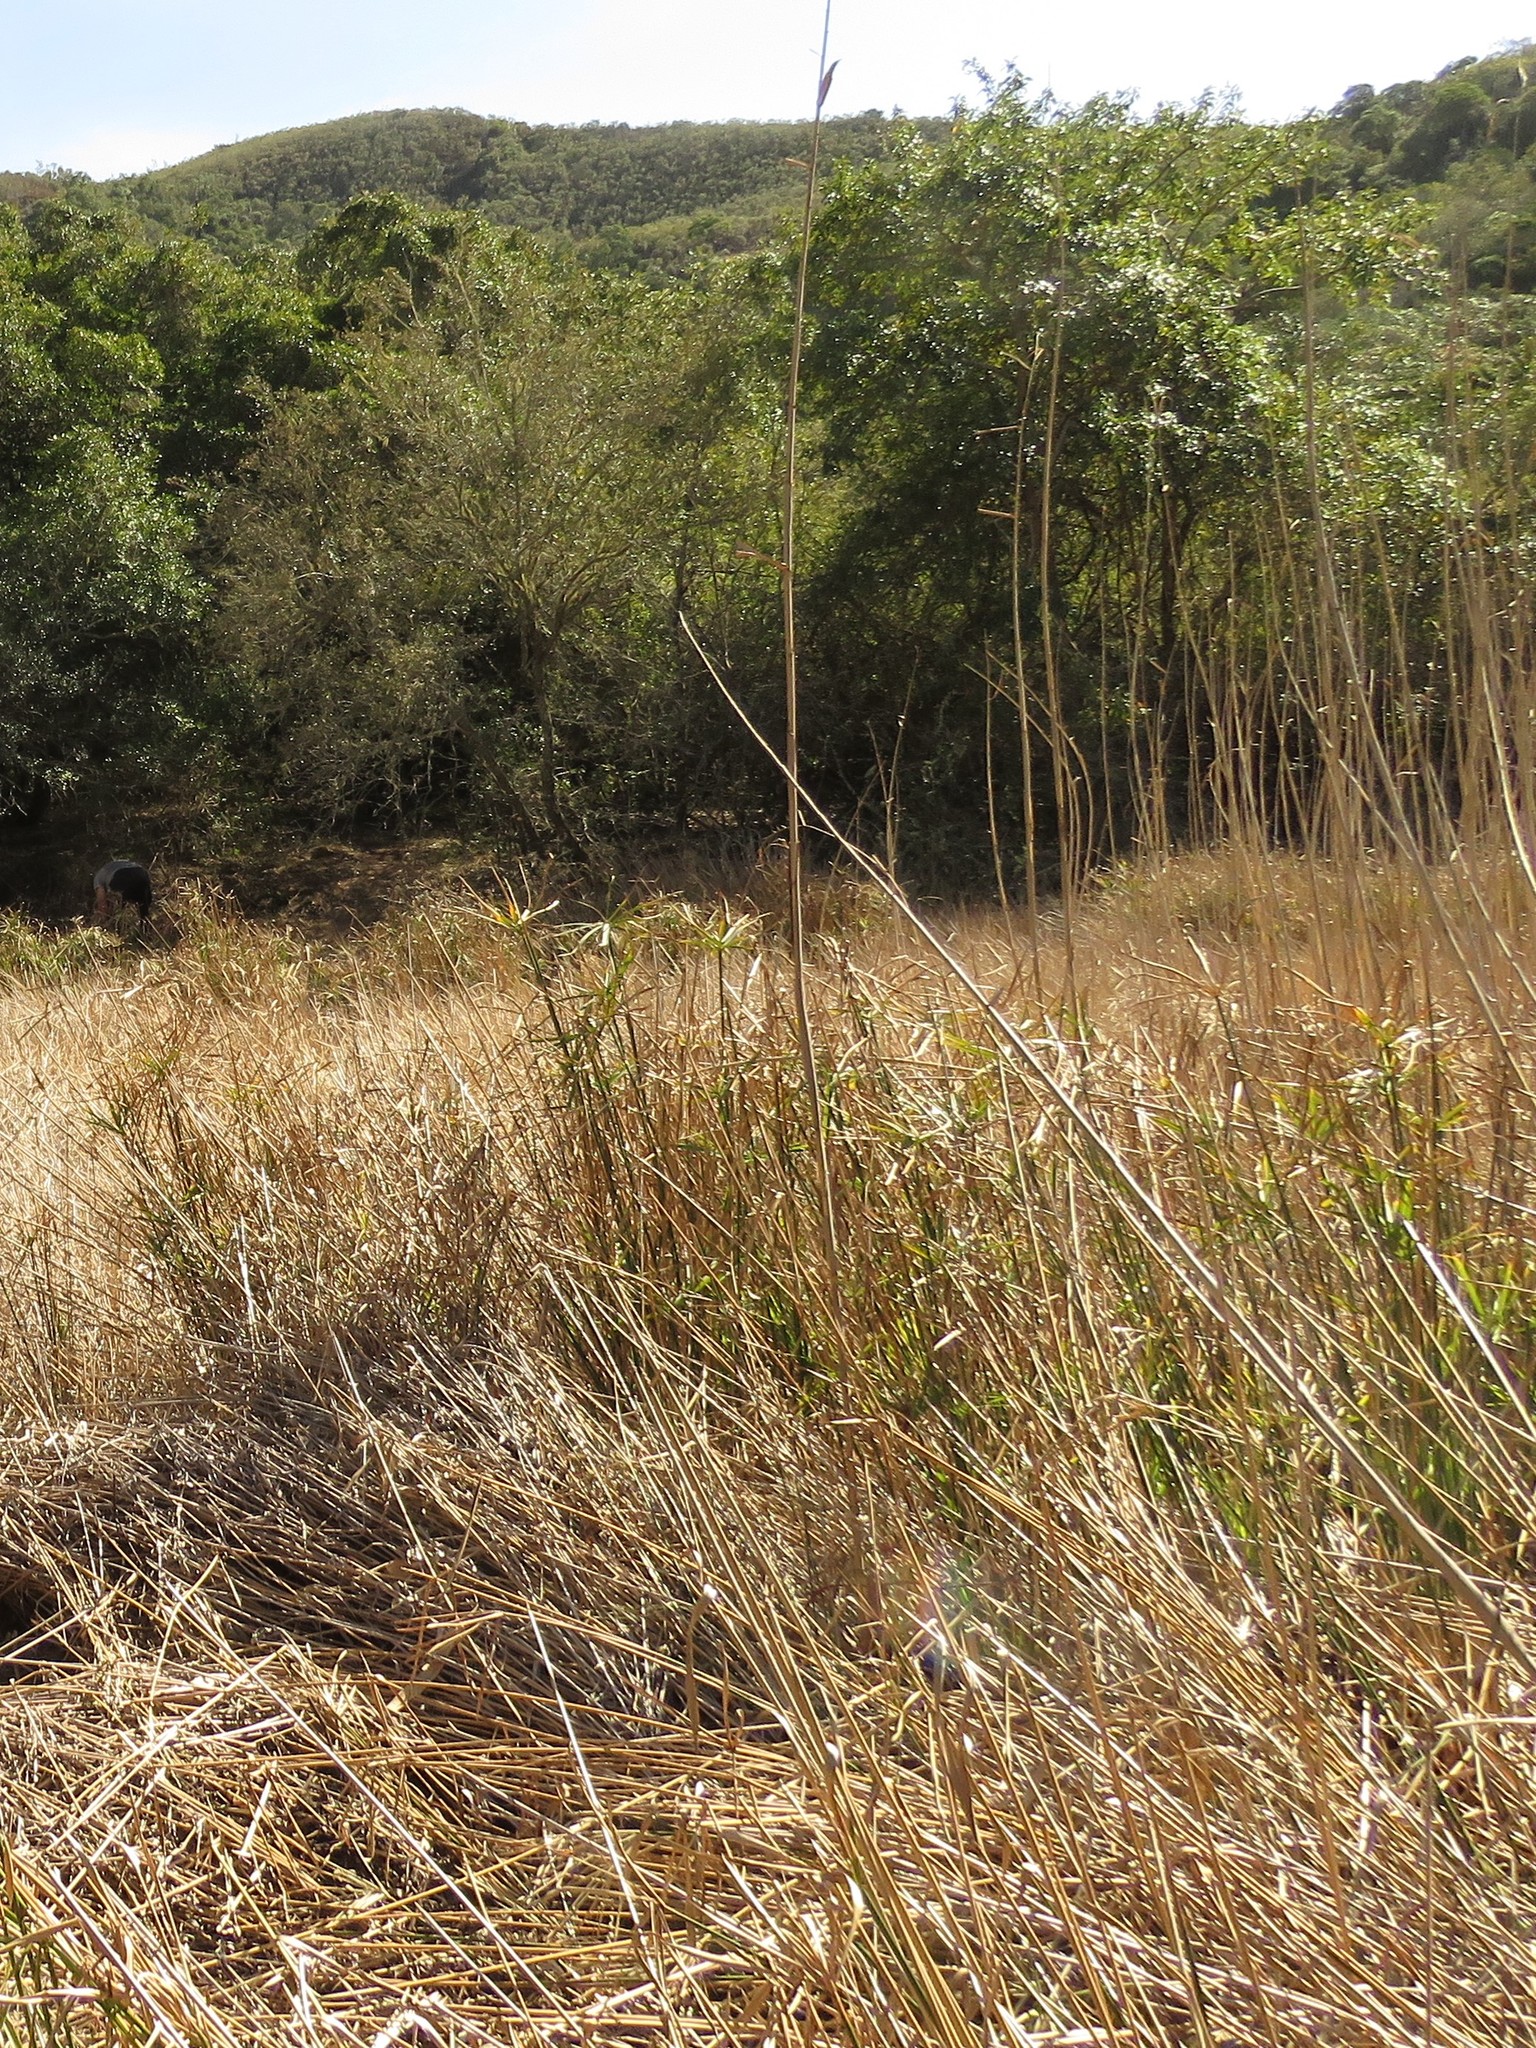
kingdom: Plantae
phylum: Tracheophyta
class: Liliopsida
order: Poales
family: Cyperaceae
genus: Cyperus
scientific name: Cyperus textilis
